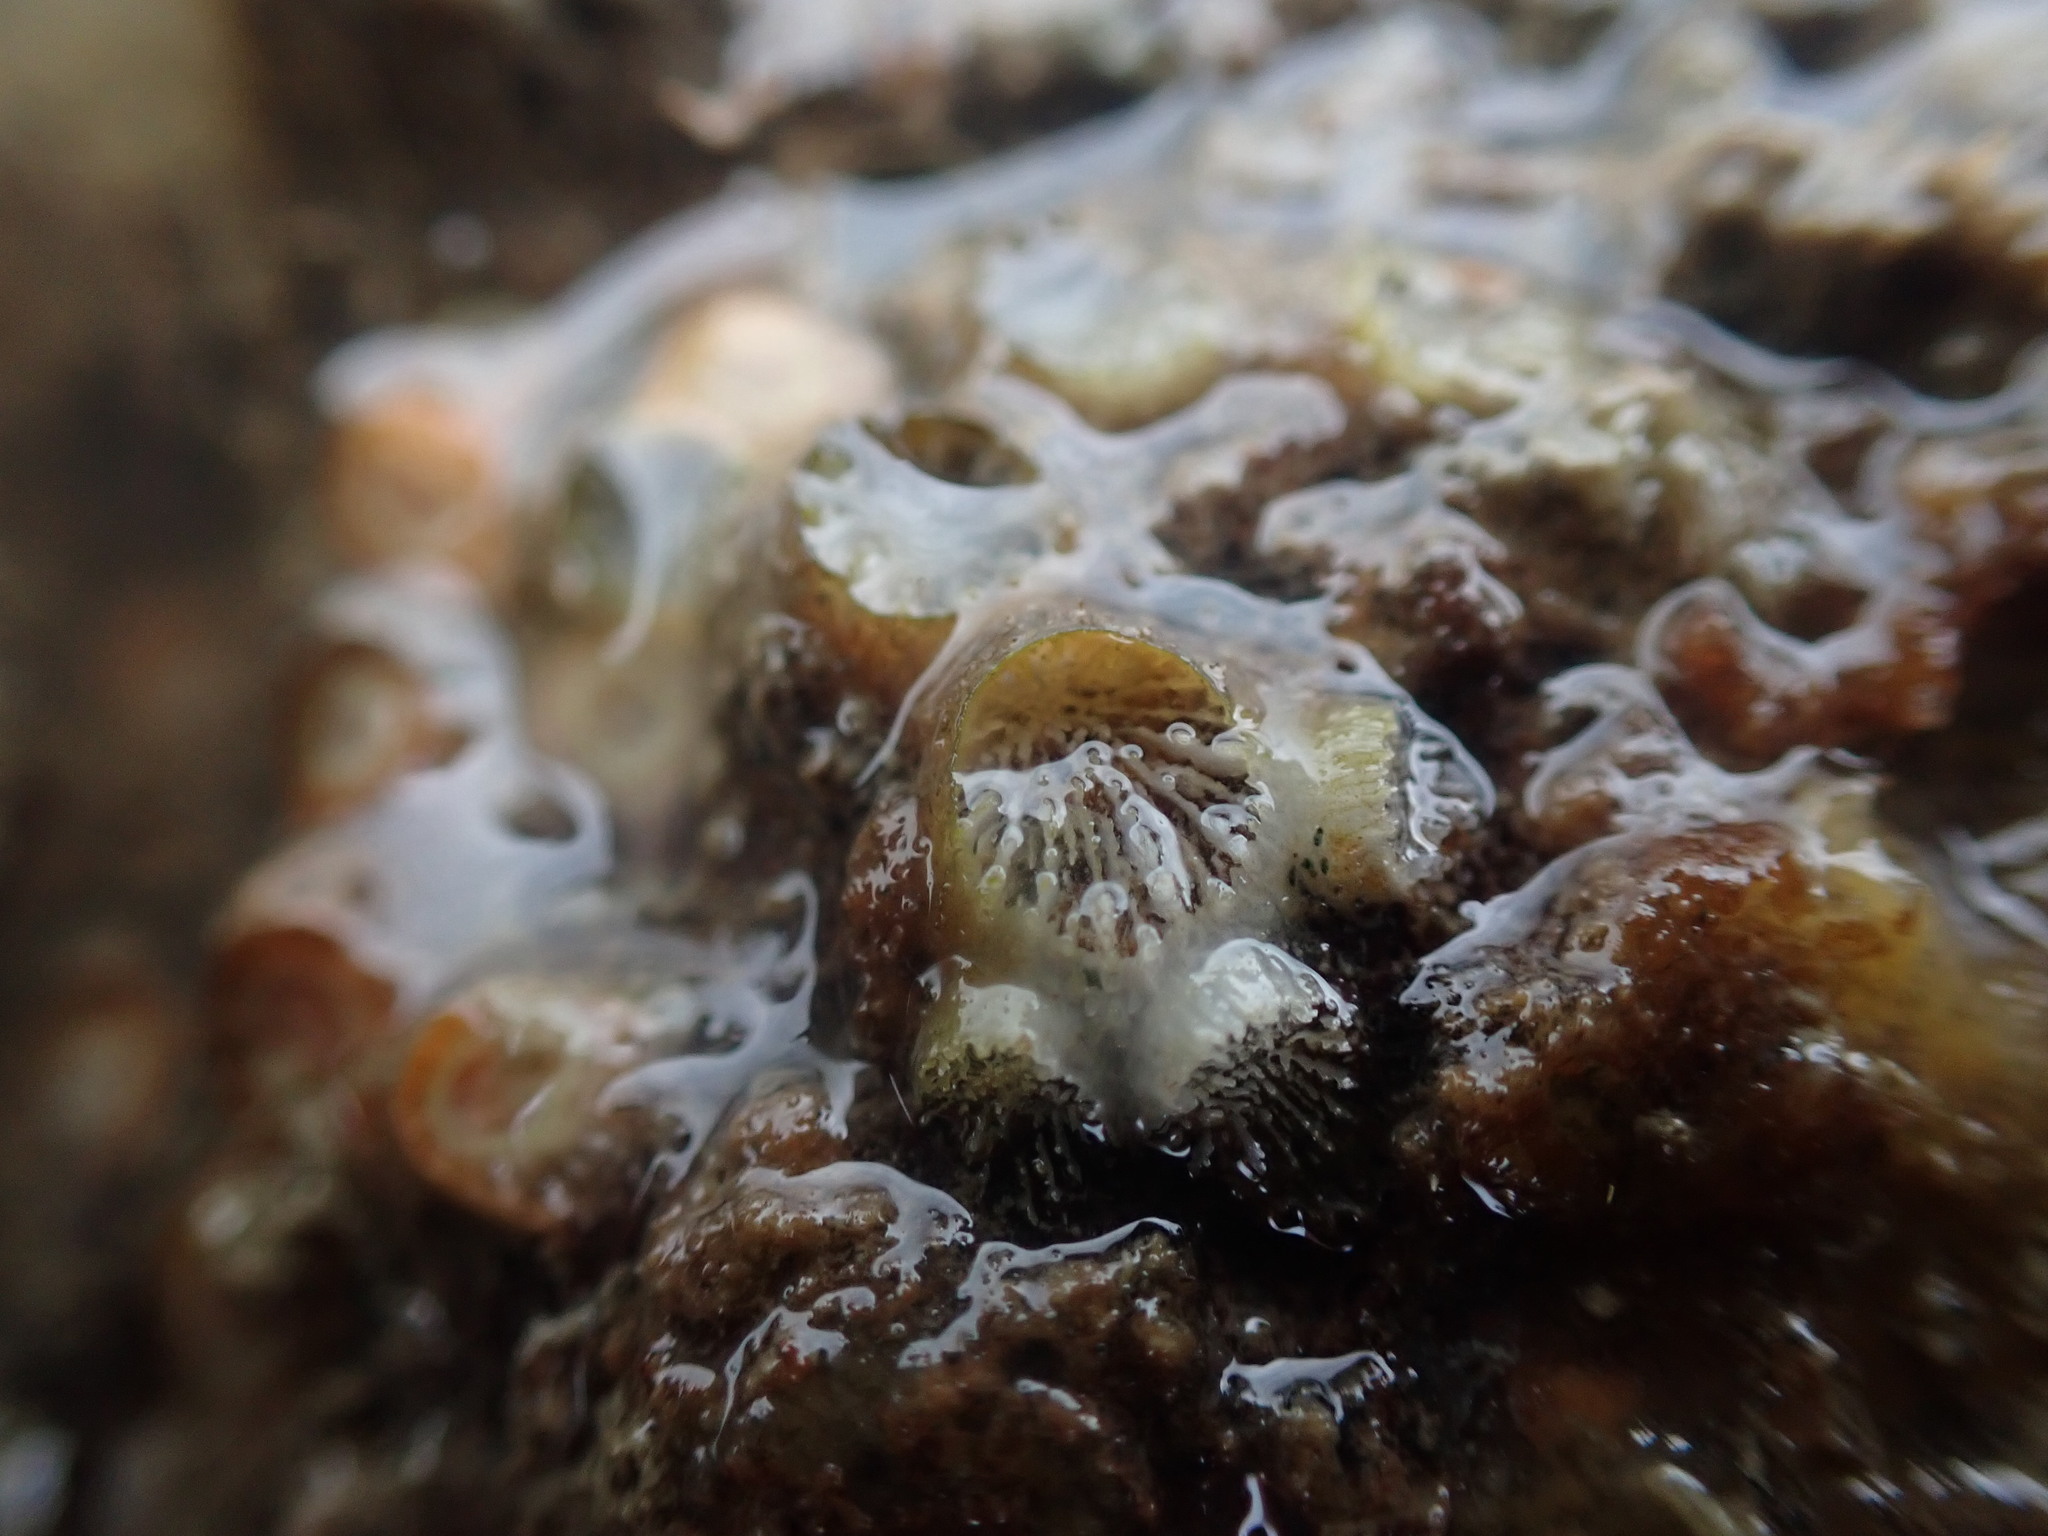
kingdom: Animalia
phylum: Cnidaria
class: Anthozoa
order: Scleractinia
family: Rhizangiidae
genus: Culicia
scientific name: Culicia rubeola
